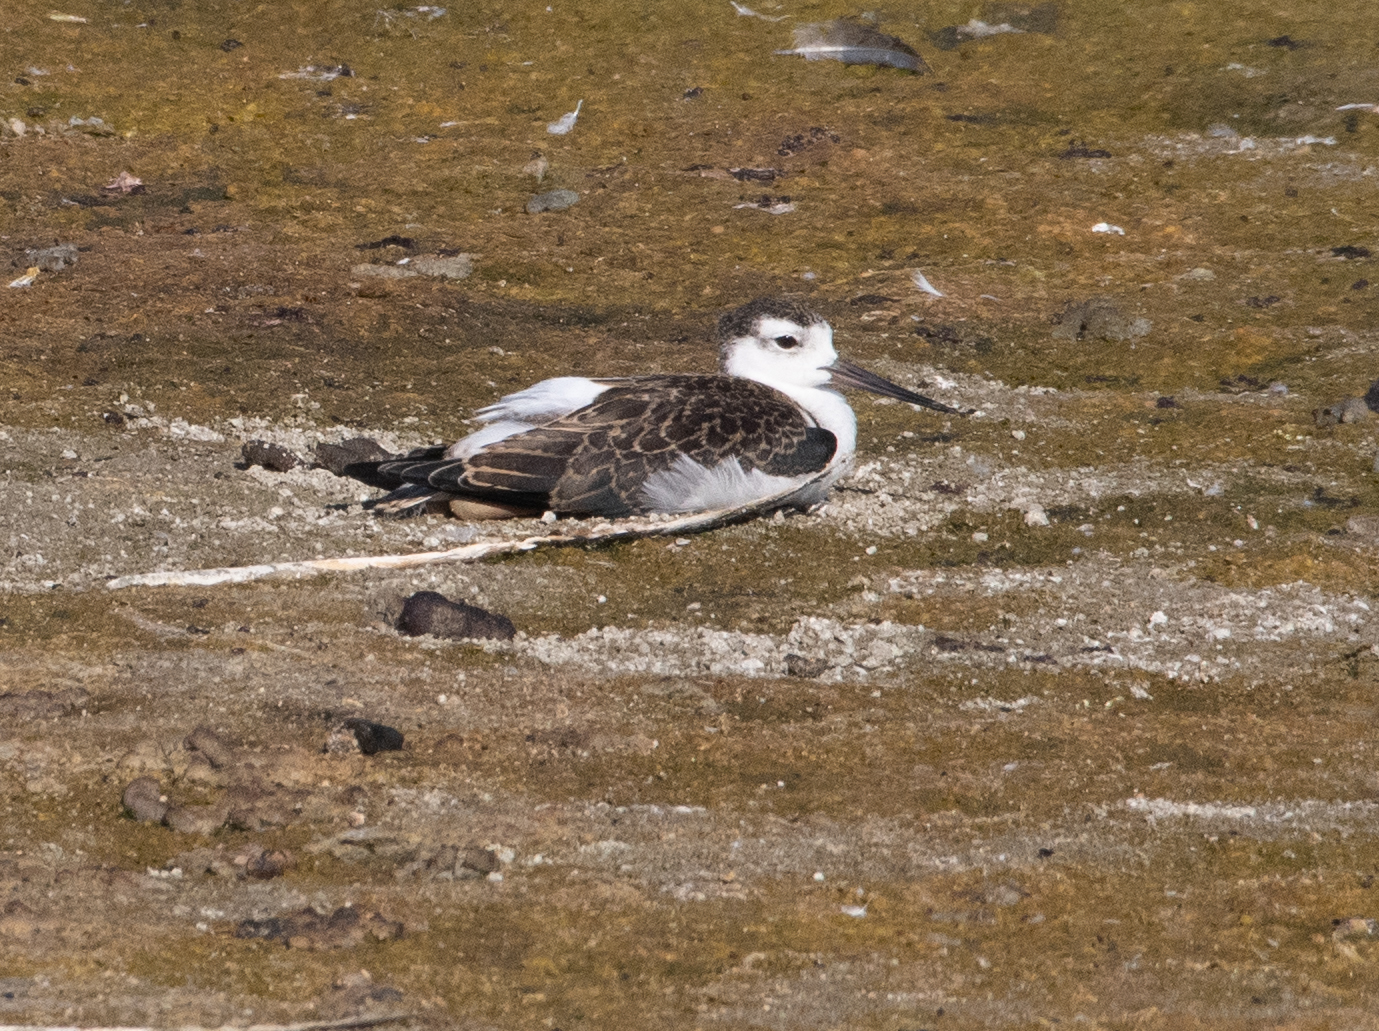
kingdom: Animalia
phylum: Chordata
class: Aves
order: Charadriiformes
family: Recurvirostridae
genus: Himantopus
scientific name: Himantopus mexicanus
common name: Black-necked stilt
